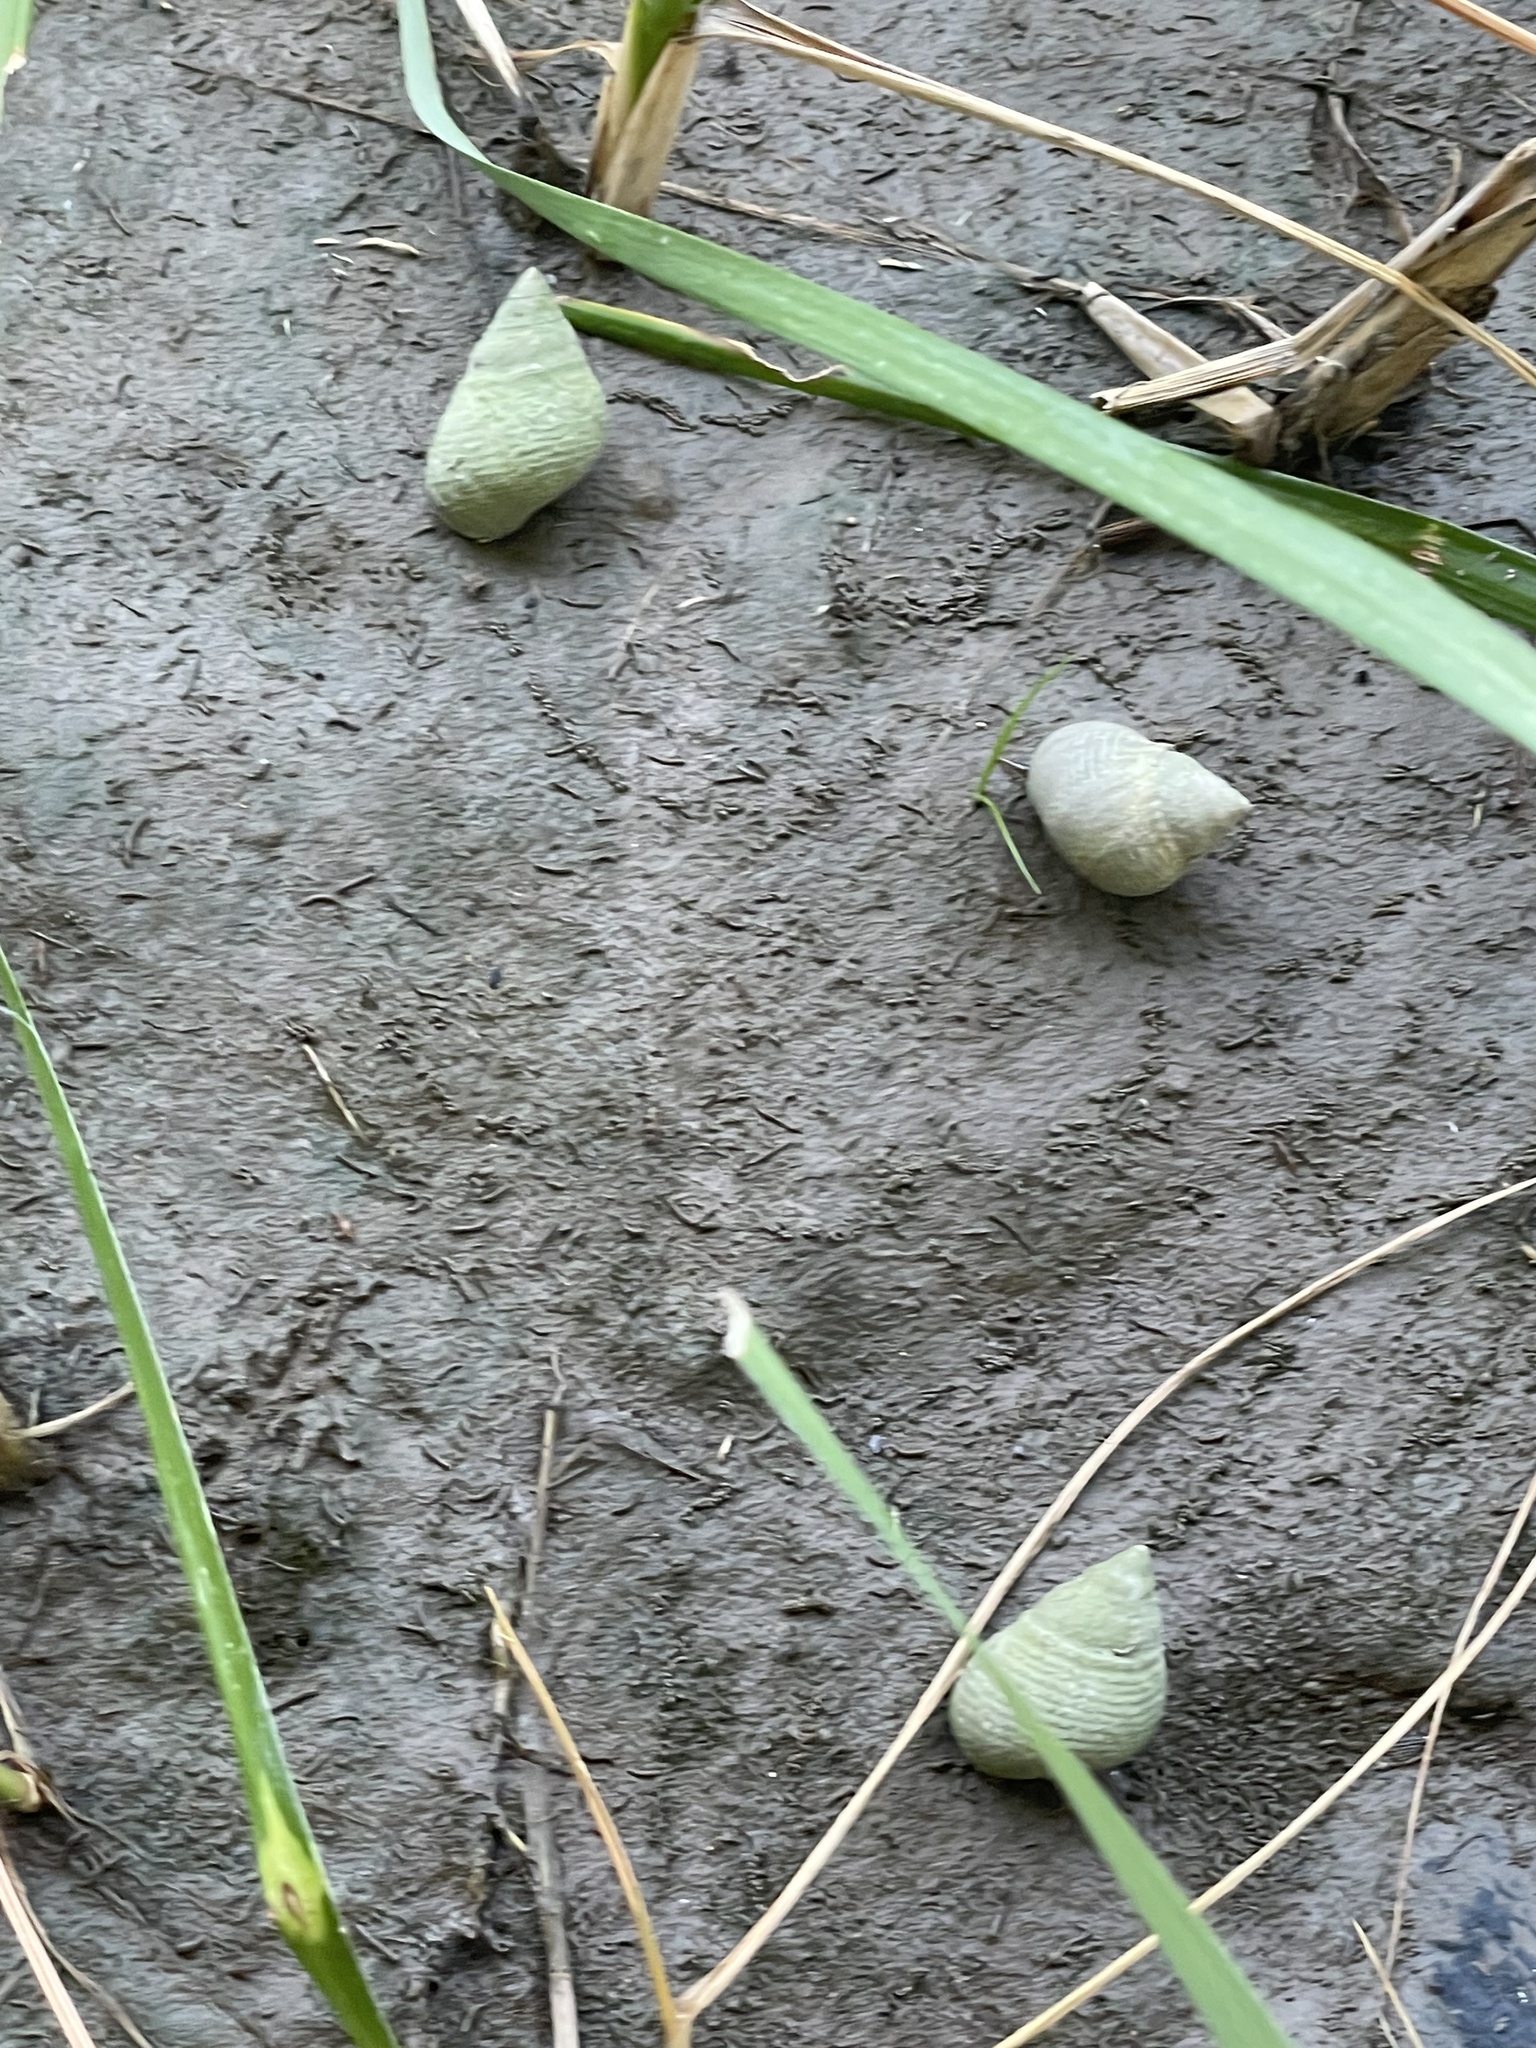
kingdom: Animalia
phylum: Mollusca
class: Gastropoda
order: Littorinimorpha
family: Littorinidae
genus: Littoraria
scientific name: Littoraria irrorata
